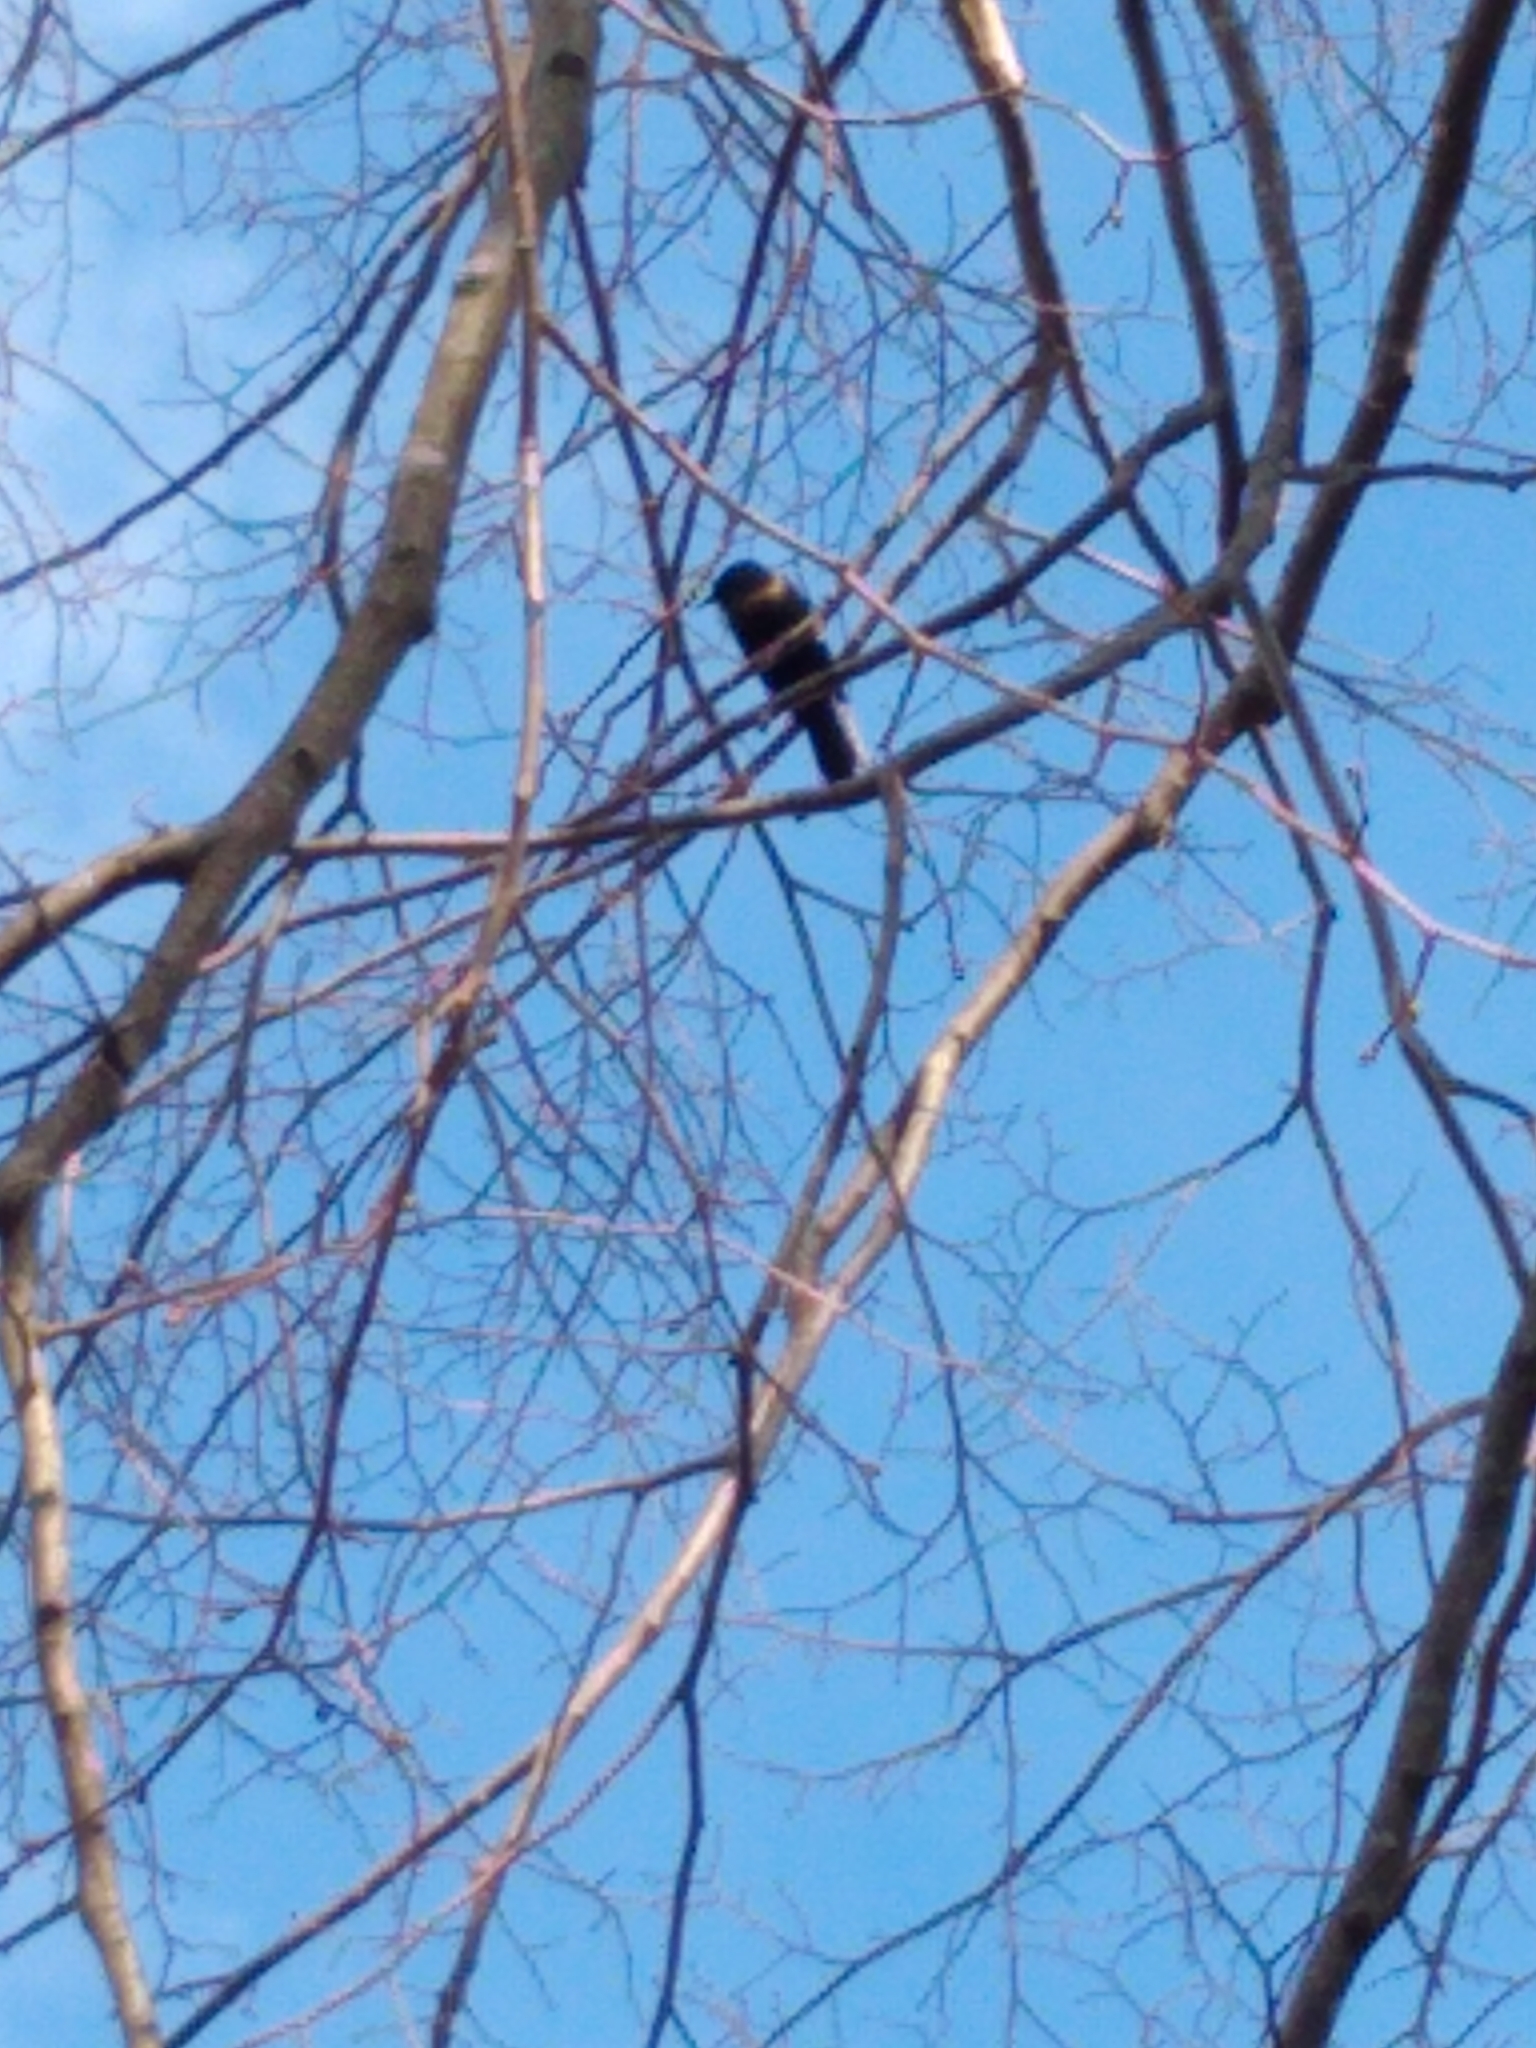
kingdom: Animalia
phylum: Chordata
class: Aves
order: Passeriformes
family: Icteridae
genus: Quiscalus
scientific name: Quiscalus quiscula
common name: Common grackle
